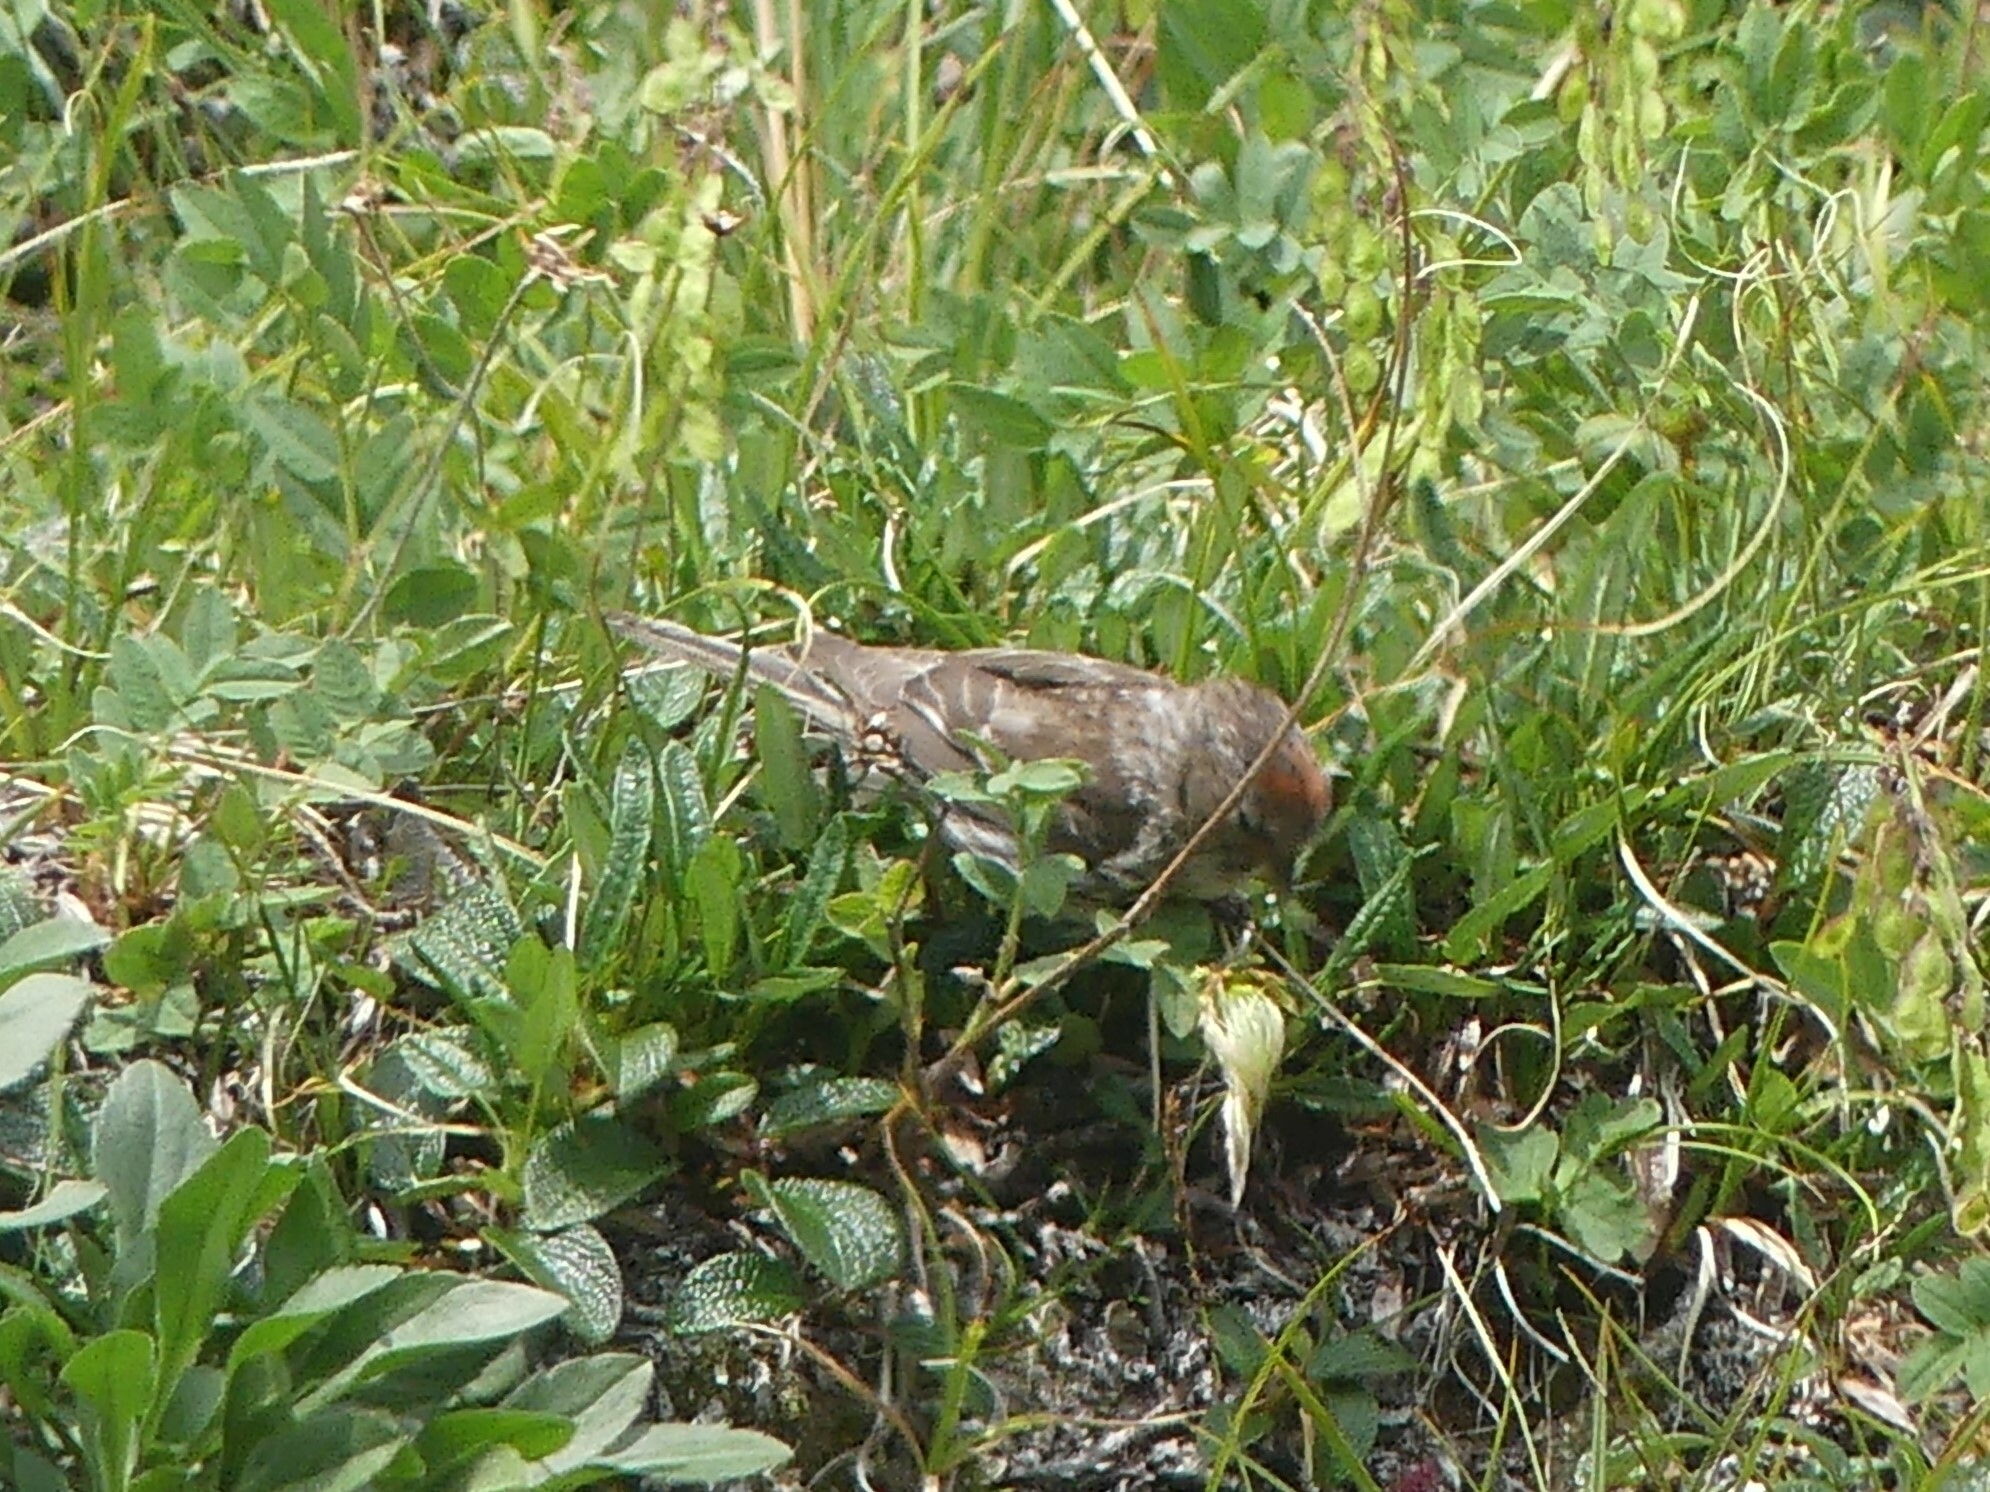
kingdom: Animalia
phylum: Chordata
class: Aves
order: Passeriformes
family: Fringillidae
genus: Acanthis
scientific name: Acanthis flammea
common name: Common redpoll
